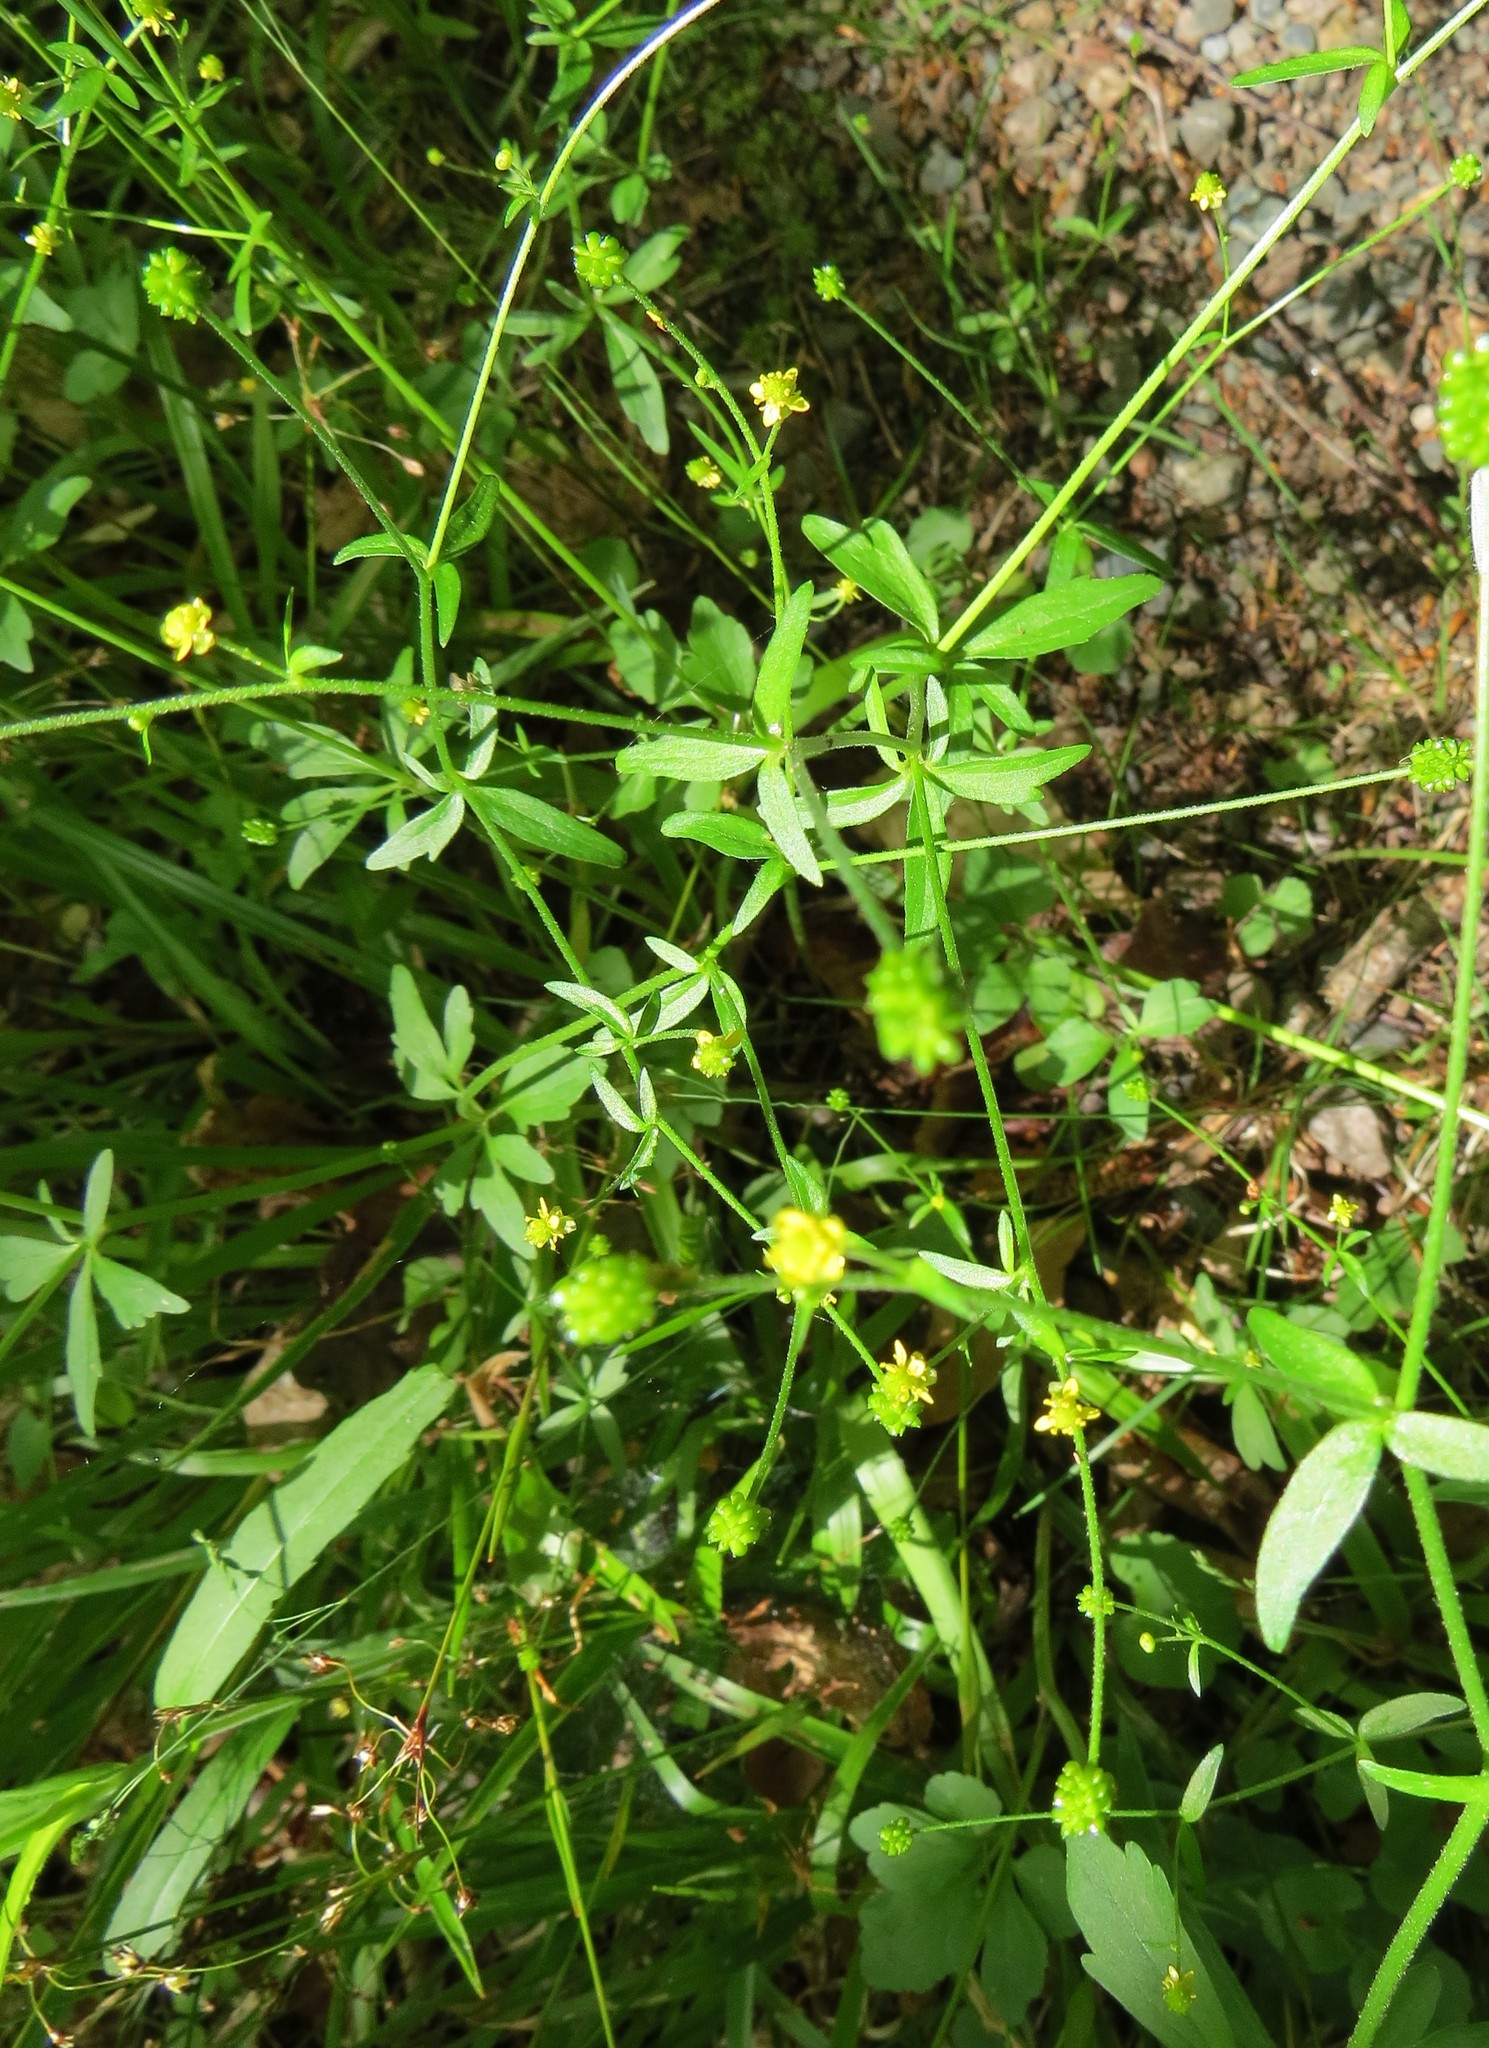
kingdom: Plantae
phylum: Tracheophyta
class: Magnoliopsida
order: Ranunculales
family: Ranunculaceae
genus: Ranunculus
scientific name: Ranunculus abortivus
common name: Early wood buttercup
